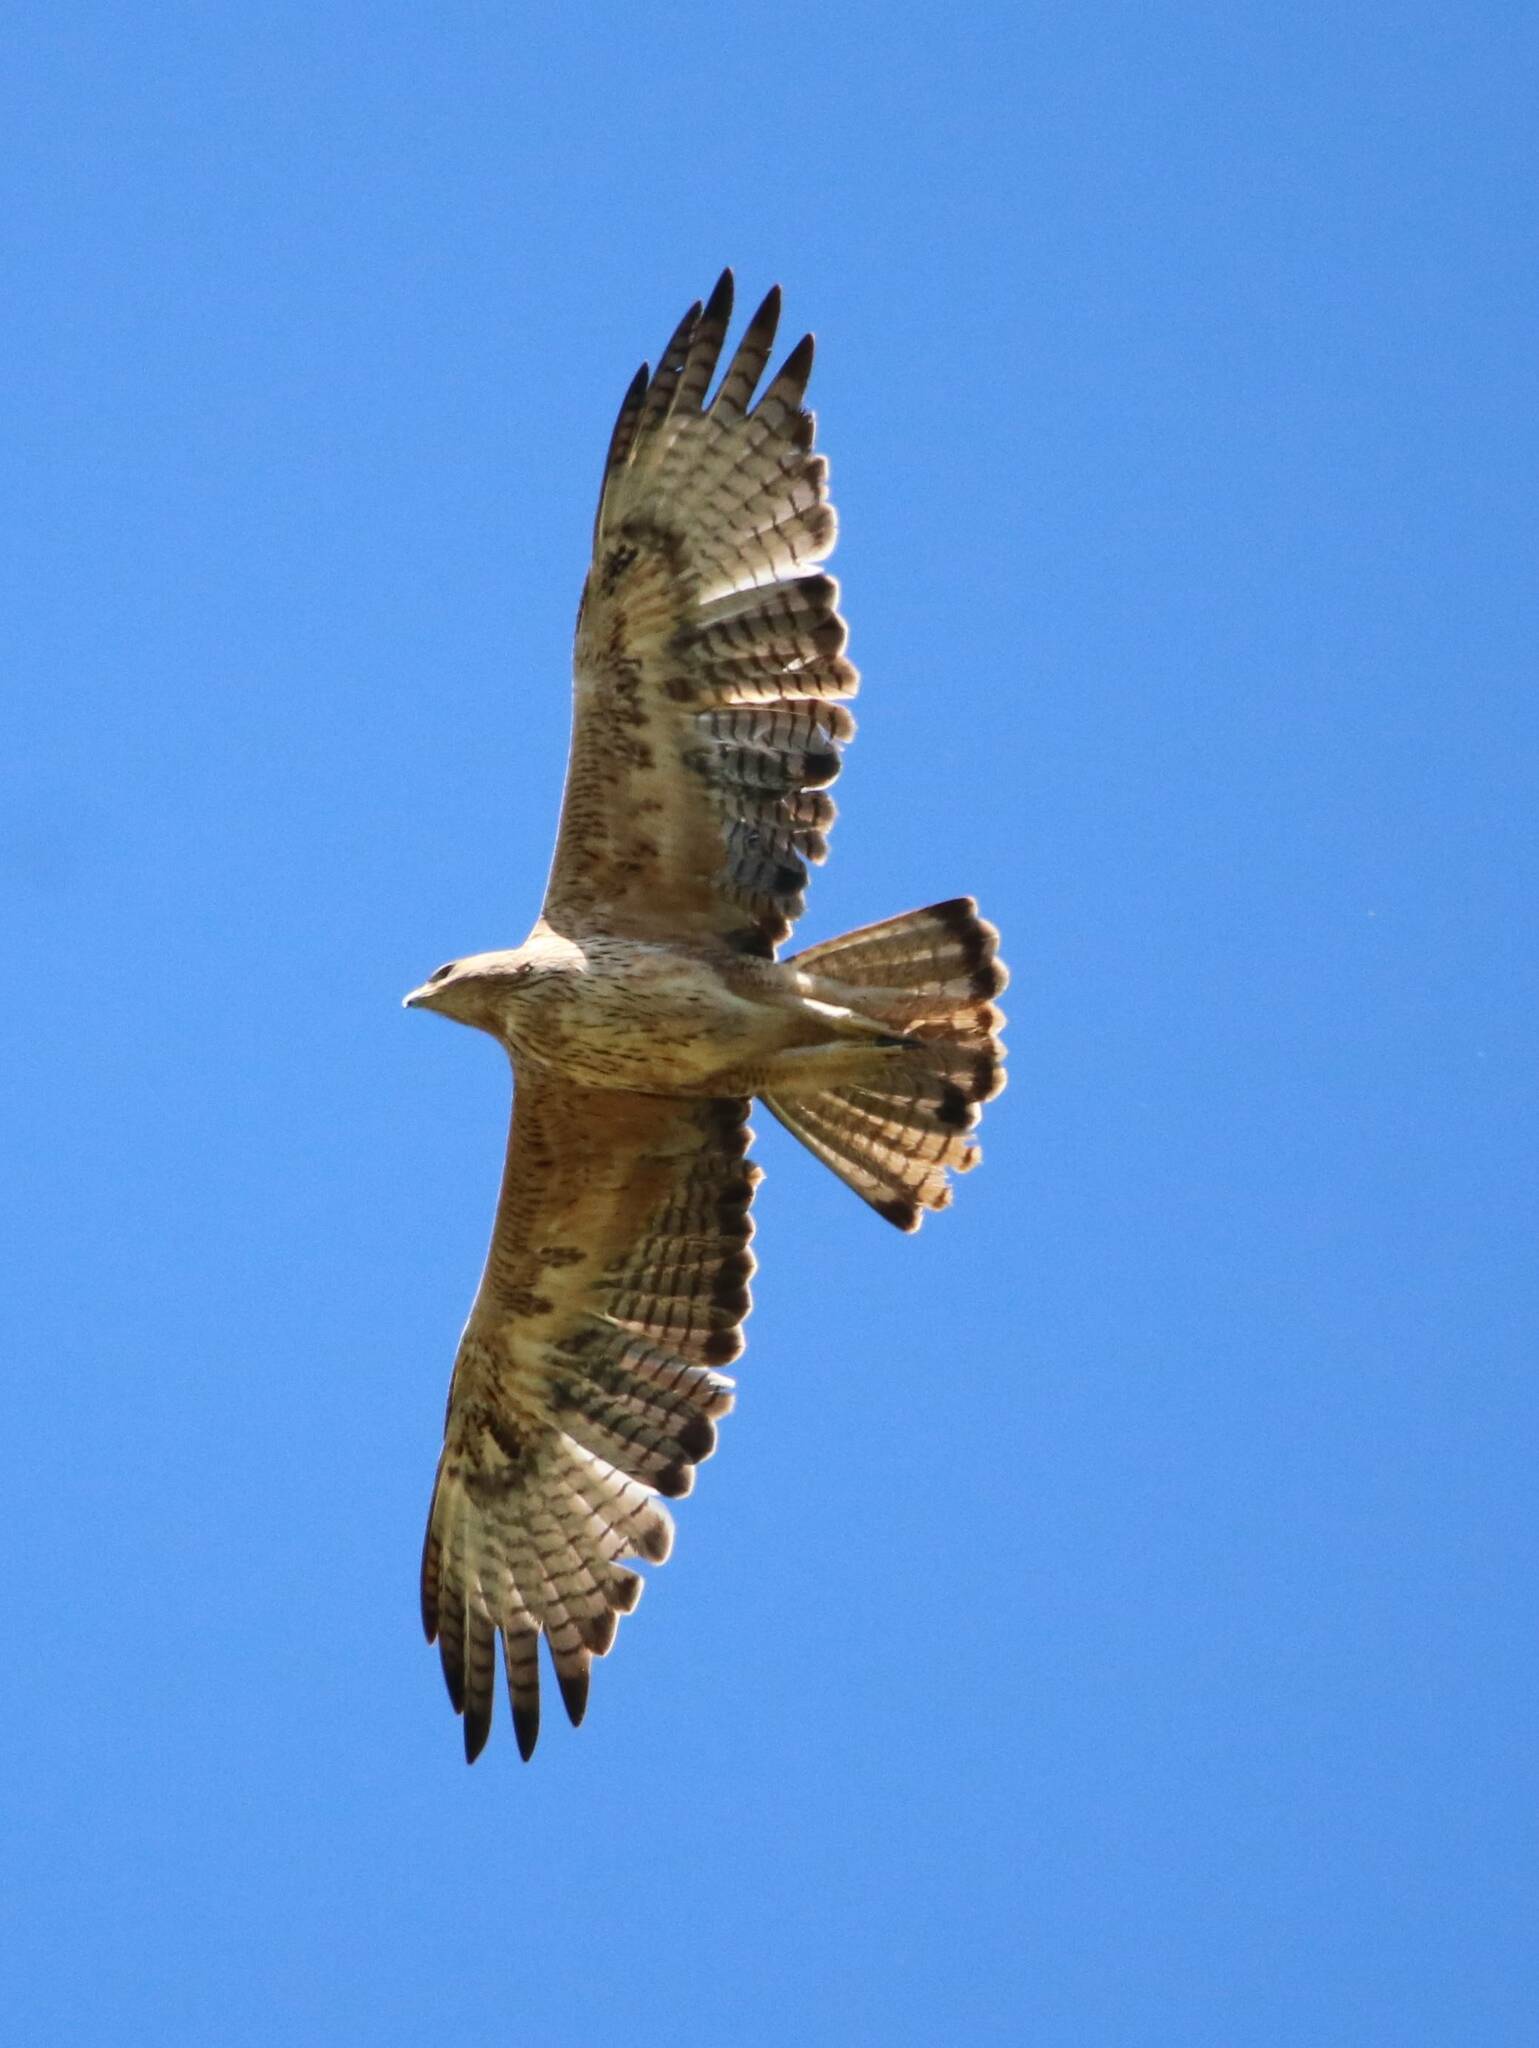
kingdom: Animalia
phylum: Chordata
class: Aves
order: Accipitriformes
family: Accipitridae
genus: Aquila
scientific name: Aquila fasciata
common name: Bonelli's eagle
